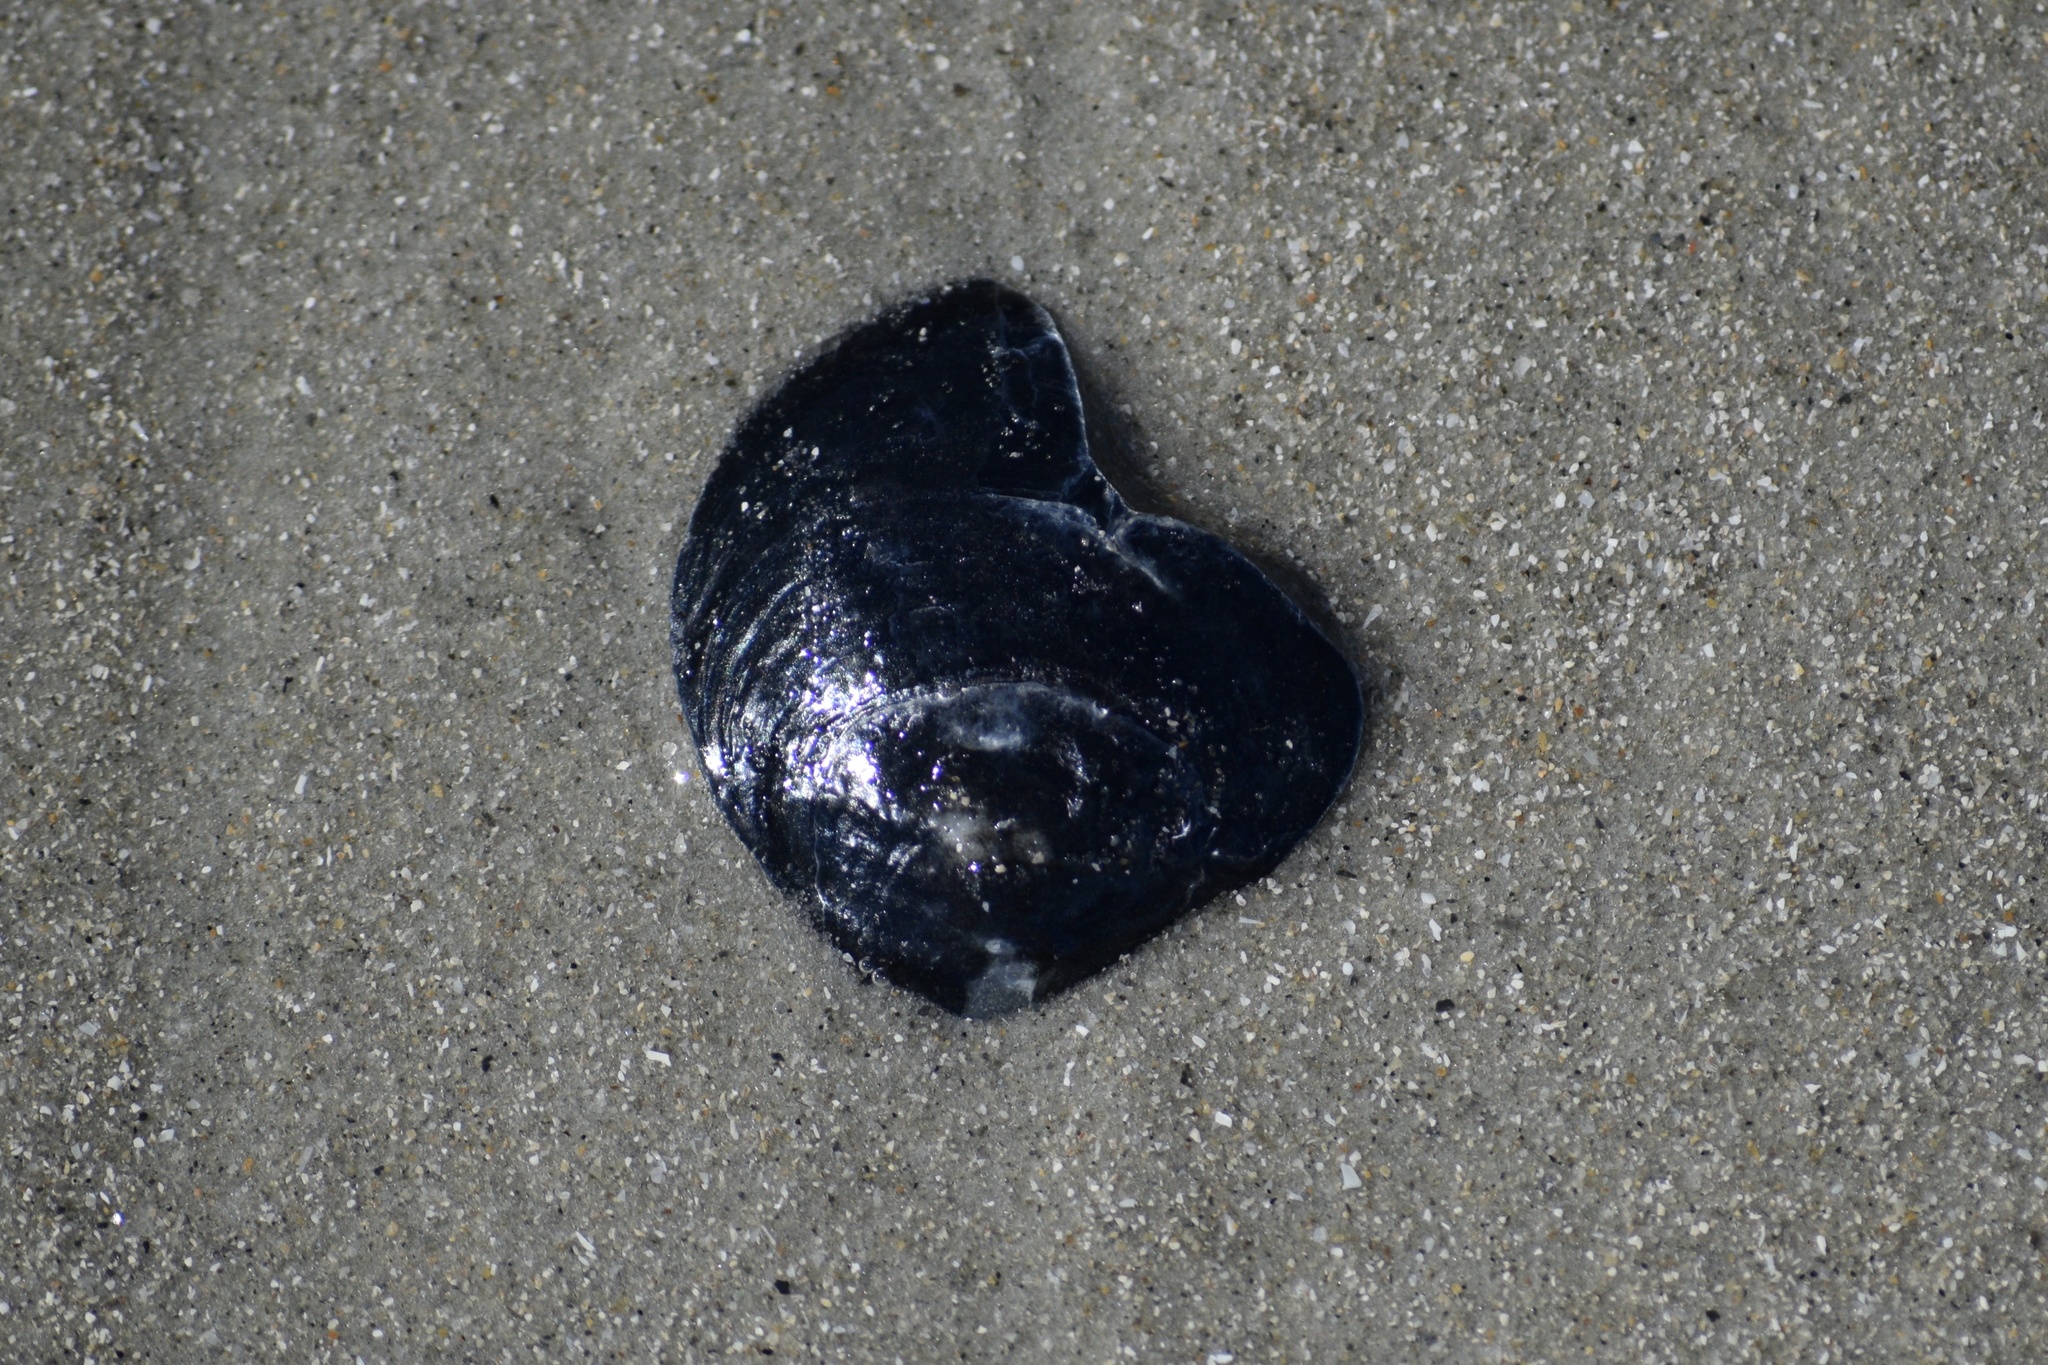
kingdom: Animalia
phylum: Mollusca
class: Bivalvia
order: Pectinida
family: Anomiidae
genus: Anomia
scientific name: Anomia simplex
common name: Common jingle shell
